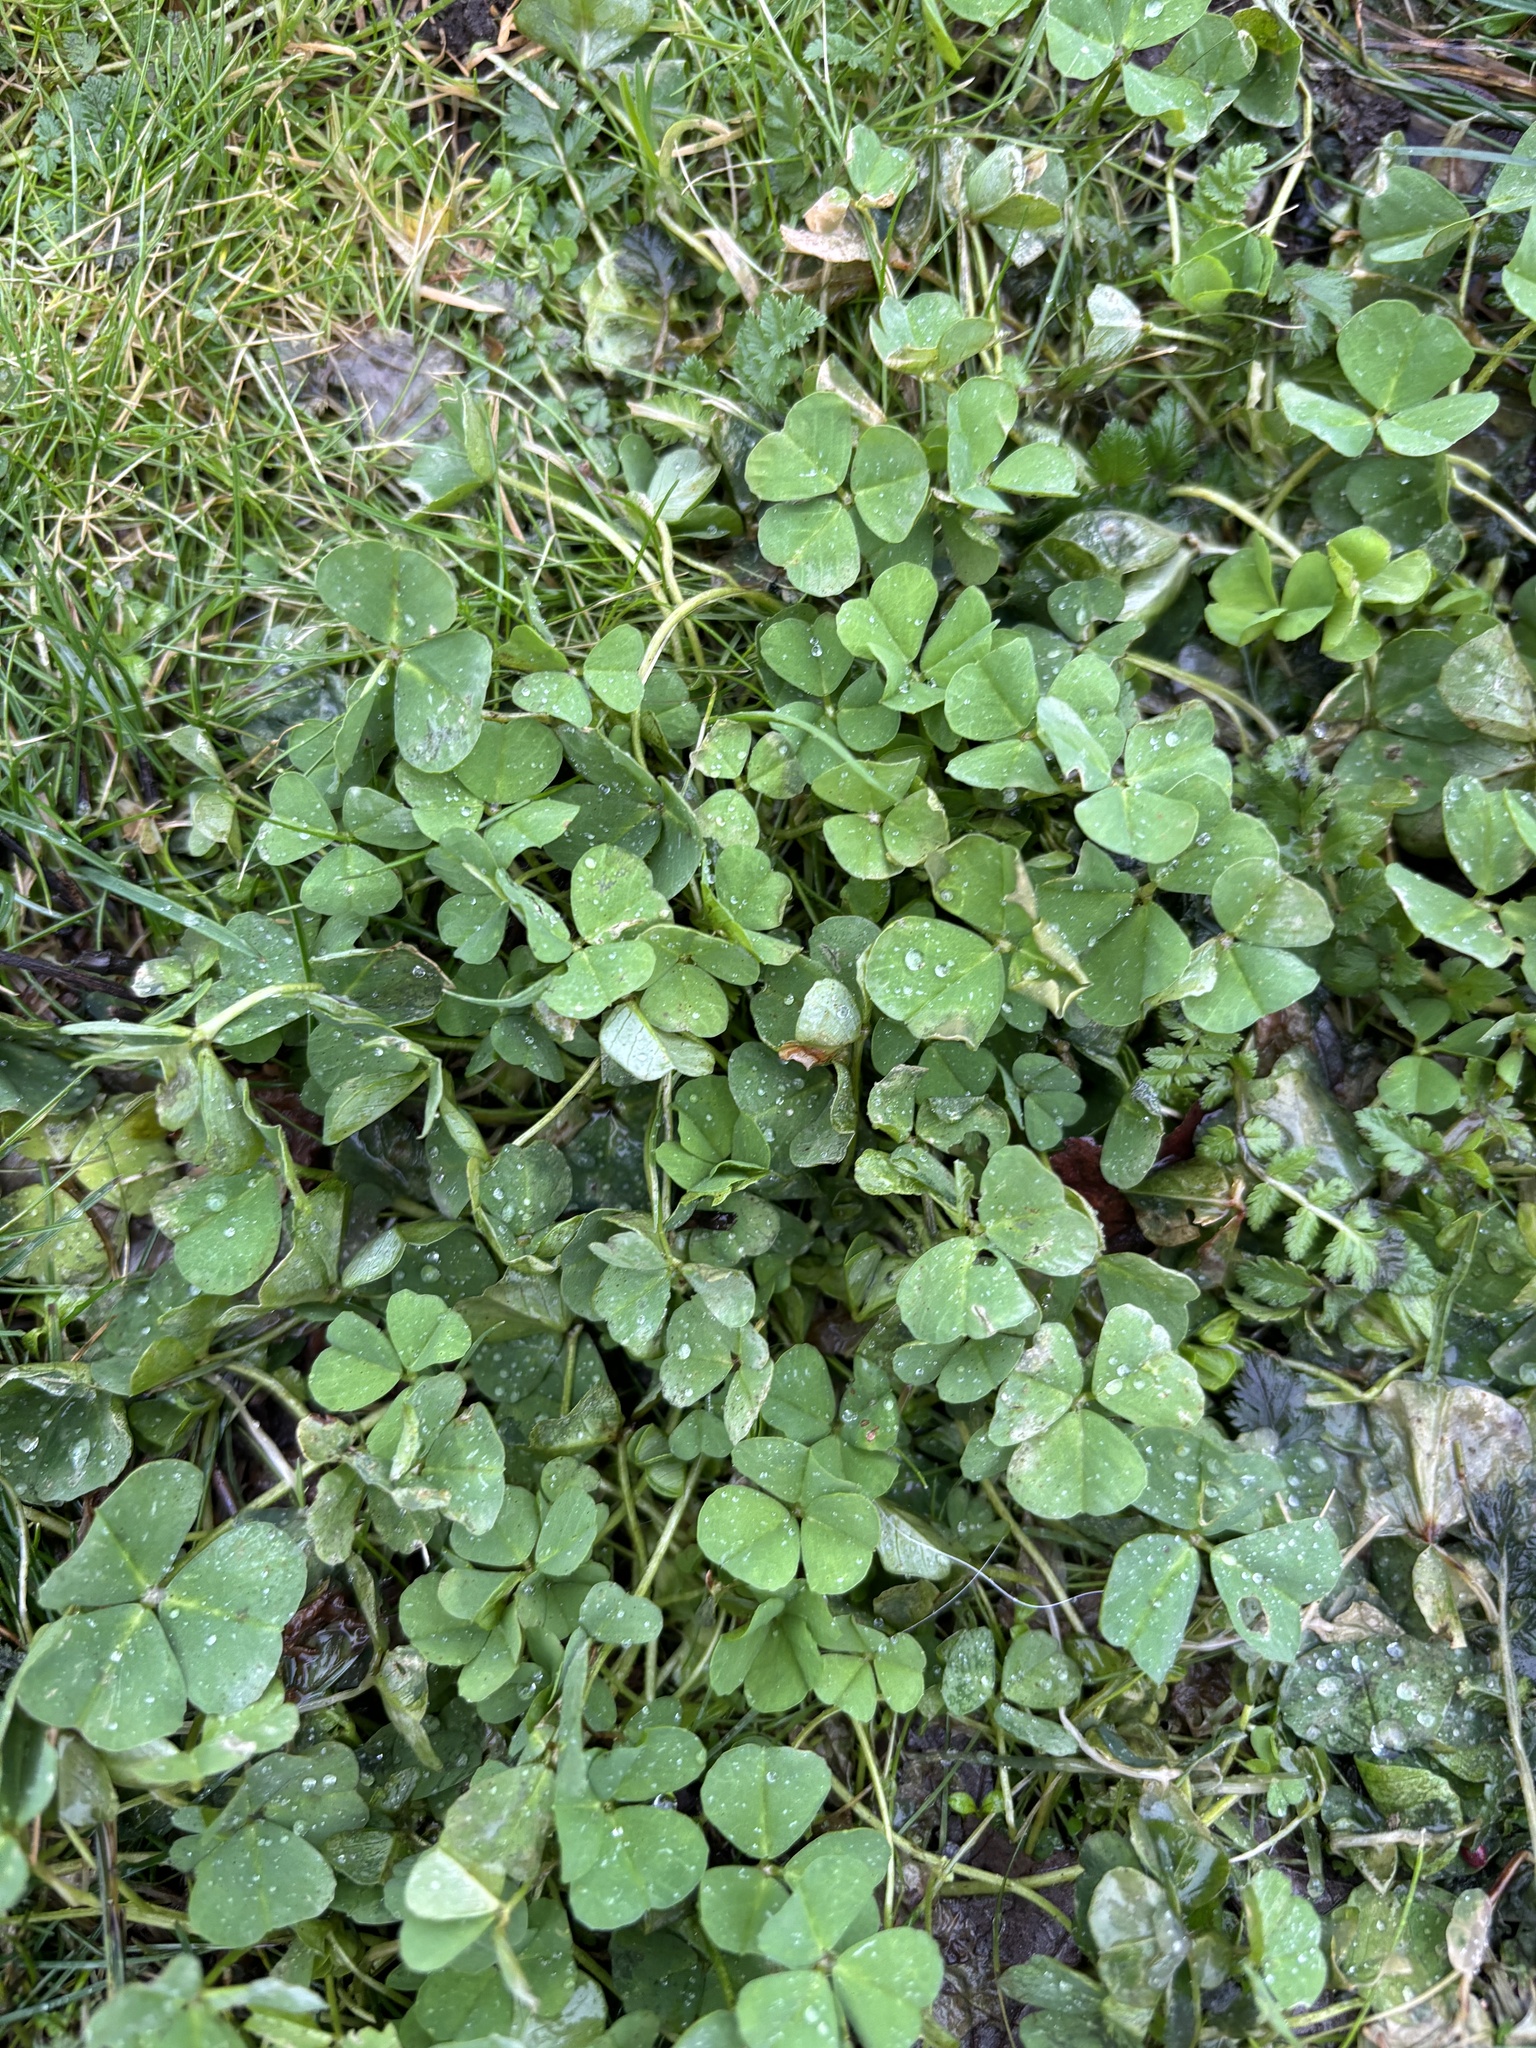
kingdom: Plantae
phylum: Tracheophyta
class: Magnoliopsida
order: Fabales
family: Fabaceae
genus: Trifolium
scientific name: Trifolium repens
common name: White clover
